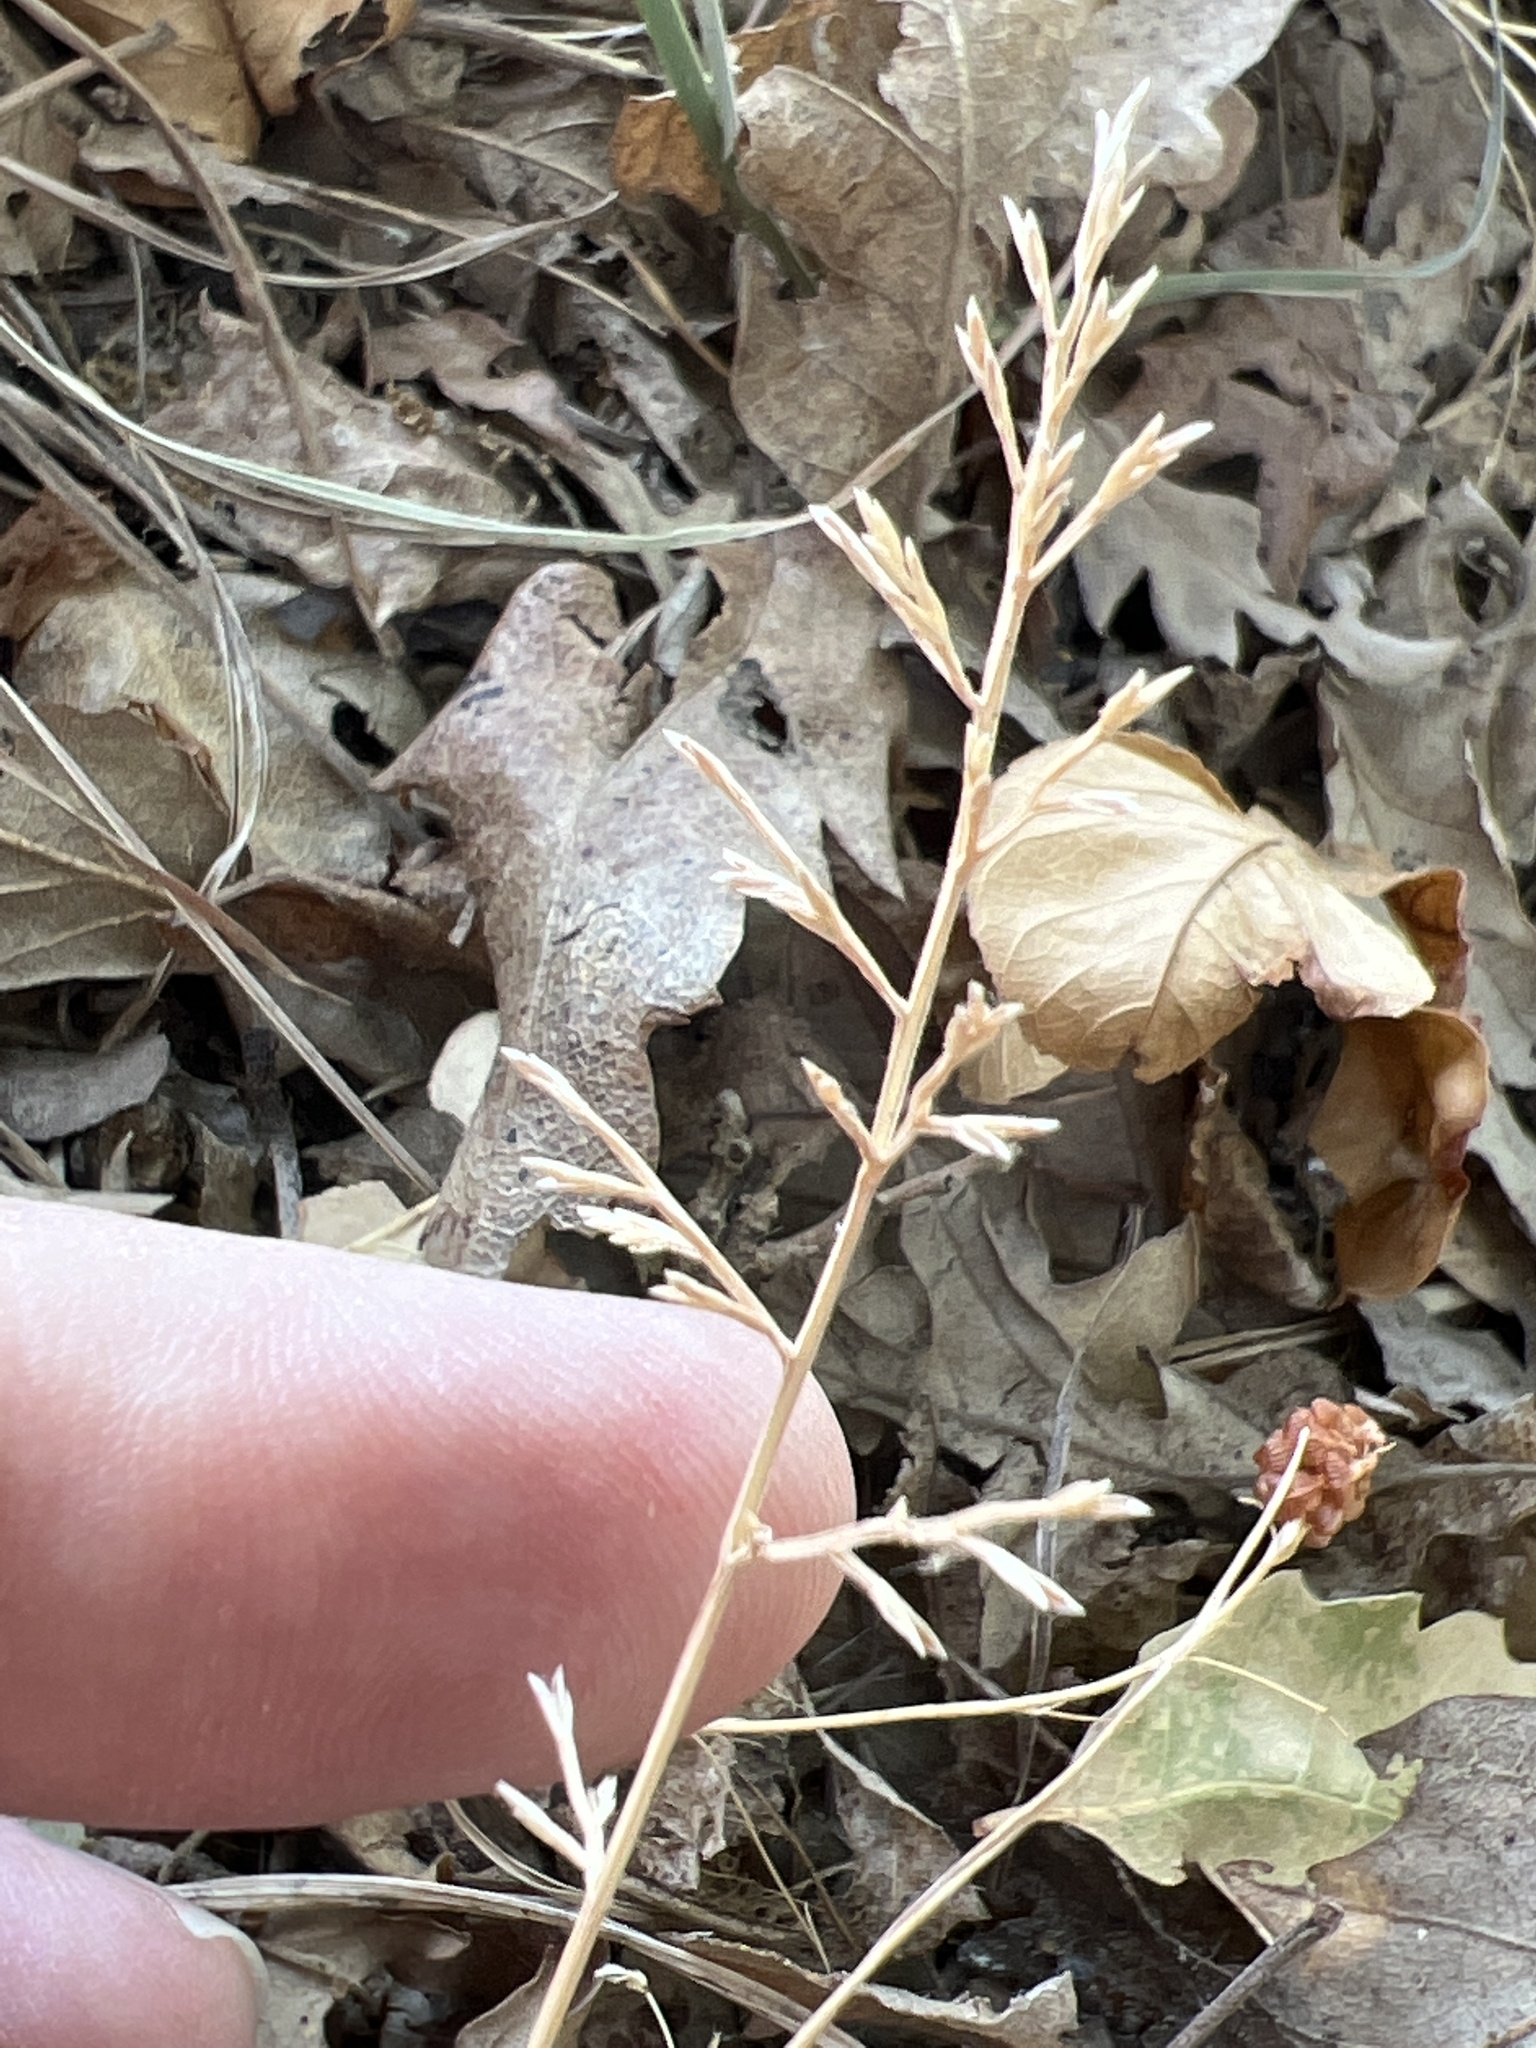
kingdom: Plantae
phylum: Tracheophyta
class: Liliopsida
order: Poales
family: Poaceae
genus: Catapodium
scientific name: Catapodium rigidum
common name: Fern-grass
